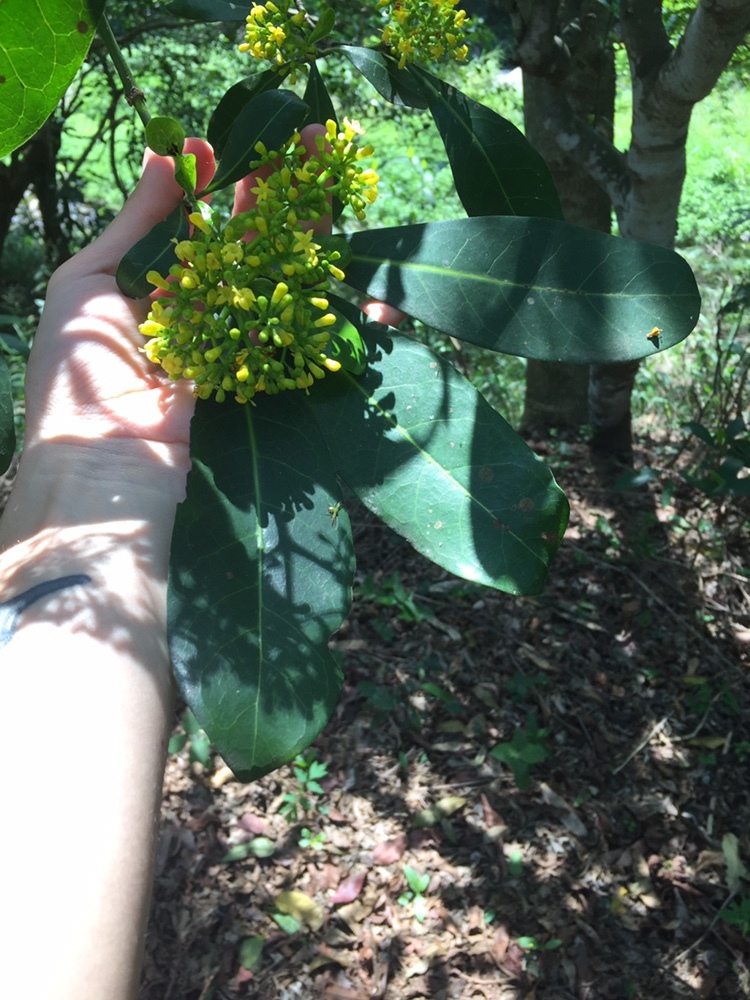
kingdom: Plantae
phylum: Tracheophyta
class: Magnoliopsida
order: Gentianales
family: Rubiaceae
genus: Psychotria
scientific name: Psychotria capensis
